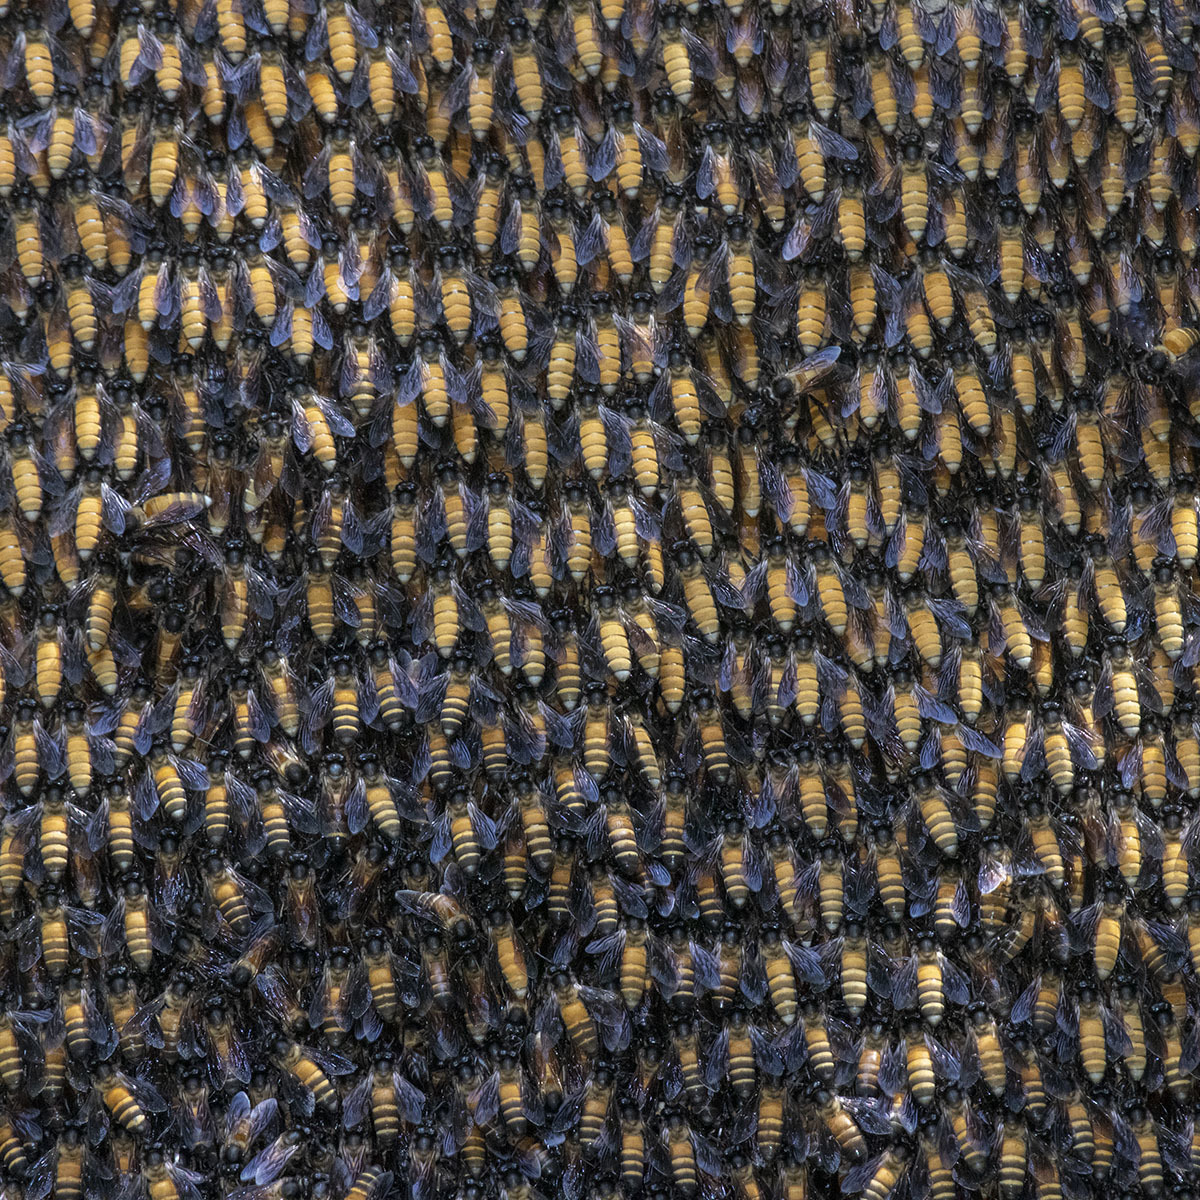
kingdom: Animalia
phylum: Arthropoda
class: Insecta
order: Hymenoptera
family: Apidae
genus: Apis
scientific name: Apis dorsata
